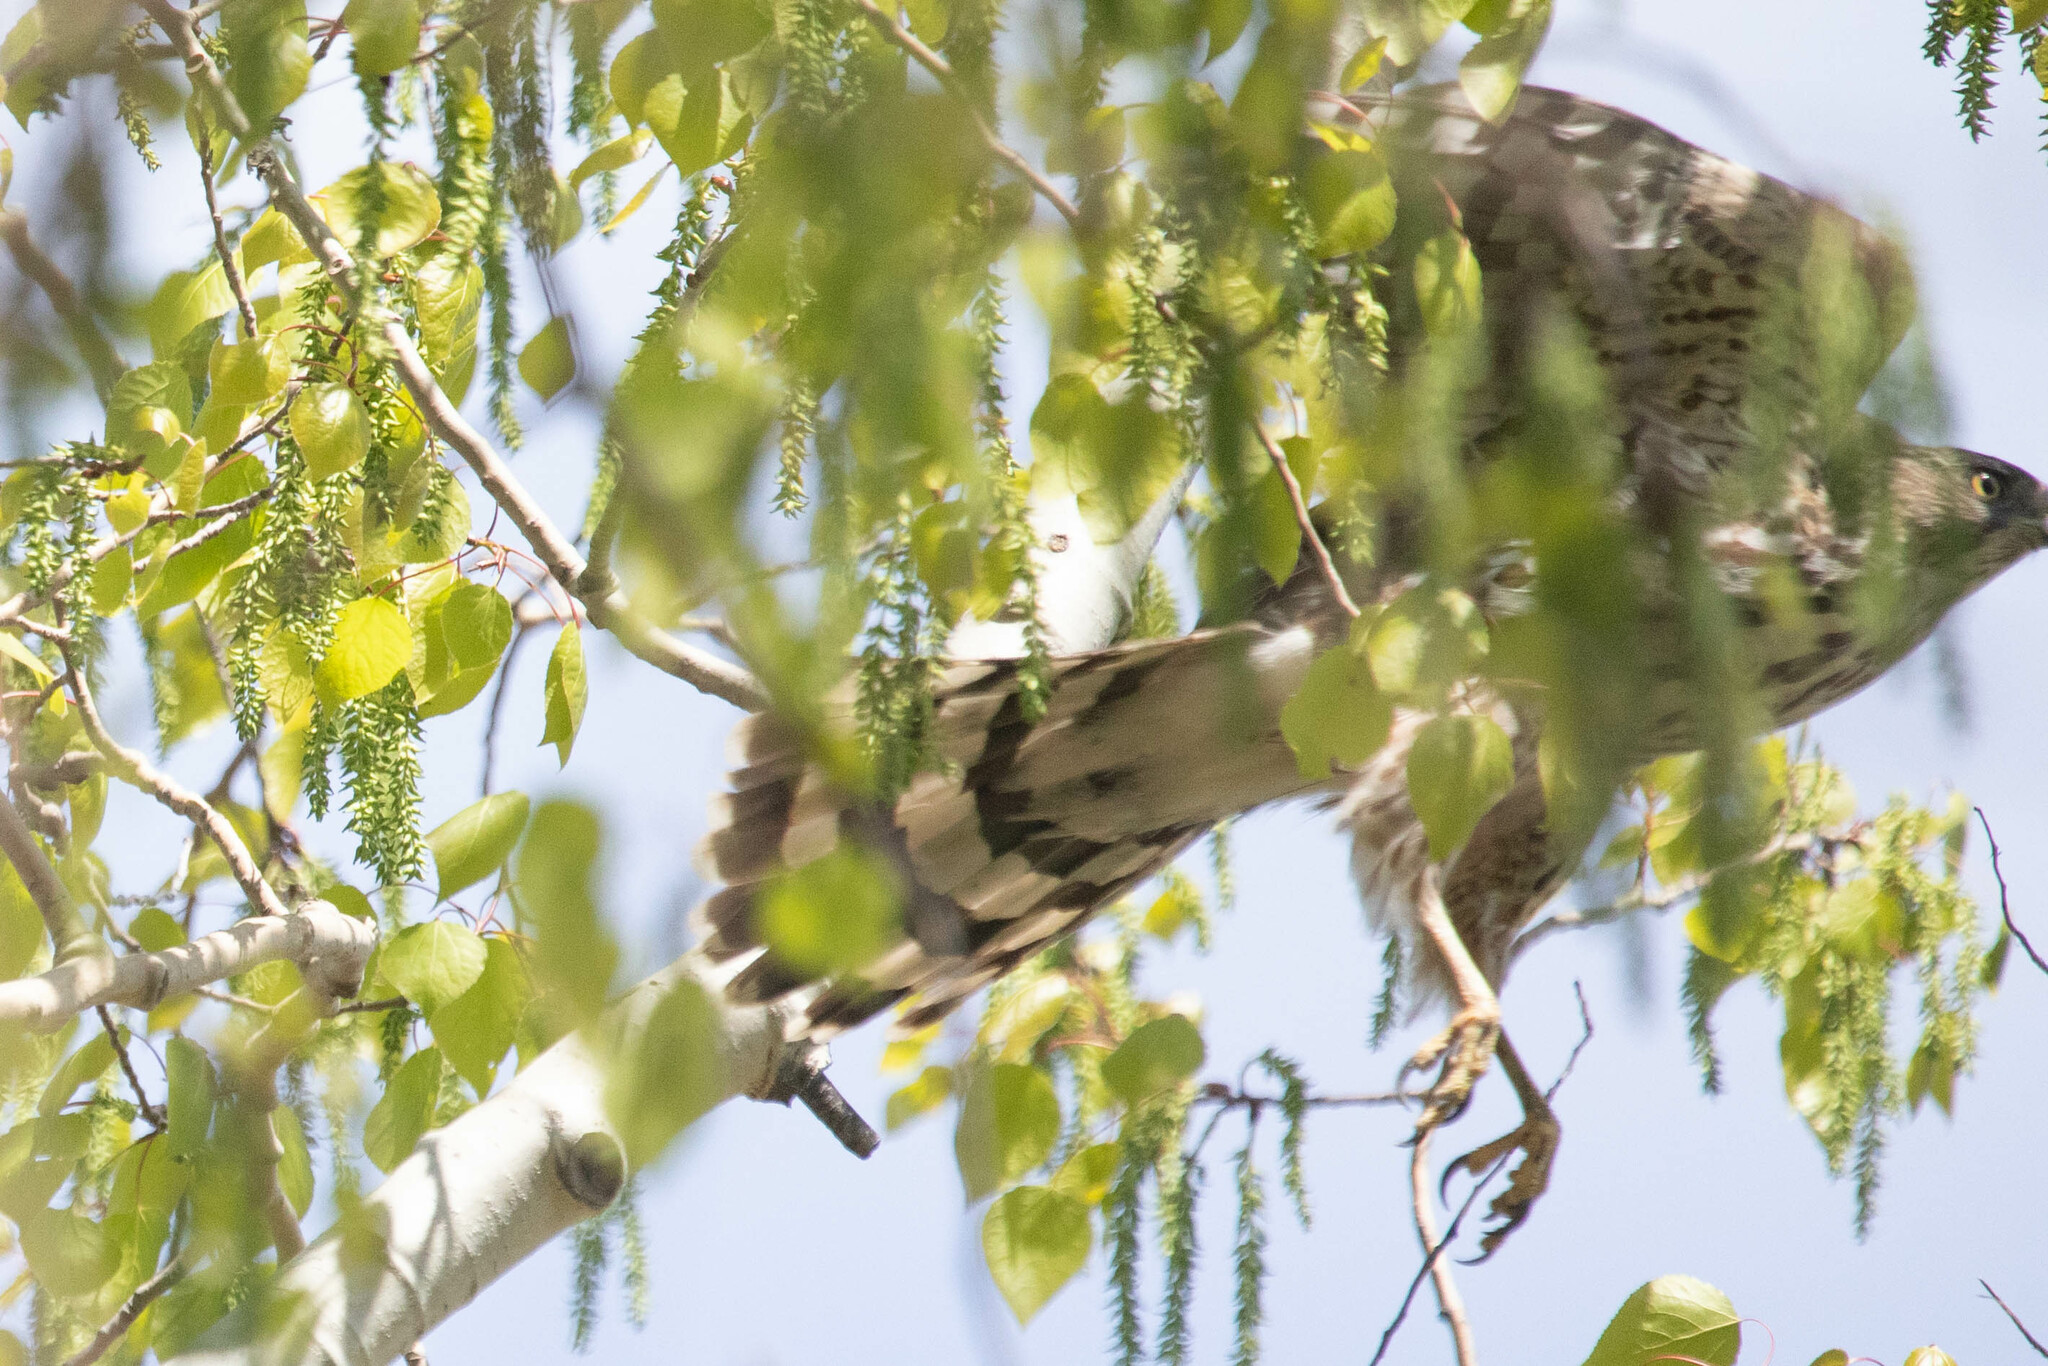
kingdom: Animalia
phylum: Chordata
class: Aves
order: Accipitriformes
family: Accipitridae
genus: Accipiter
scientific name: Accipiter cooperii
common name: Cooper's hawk
